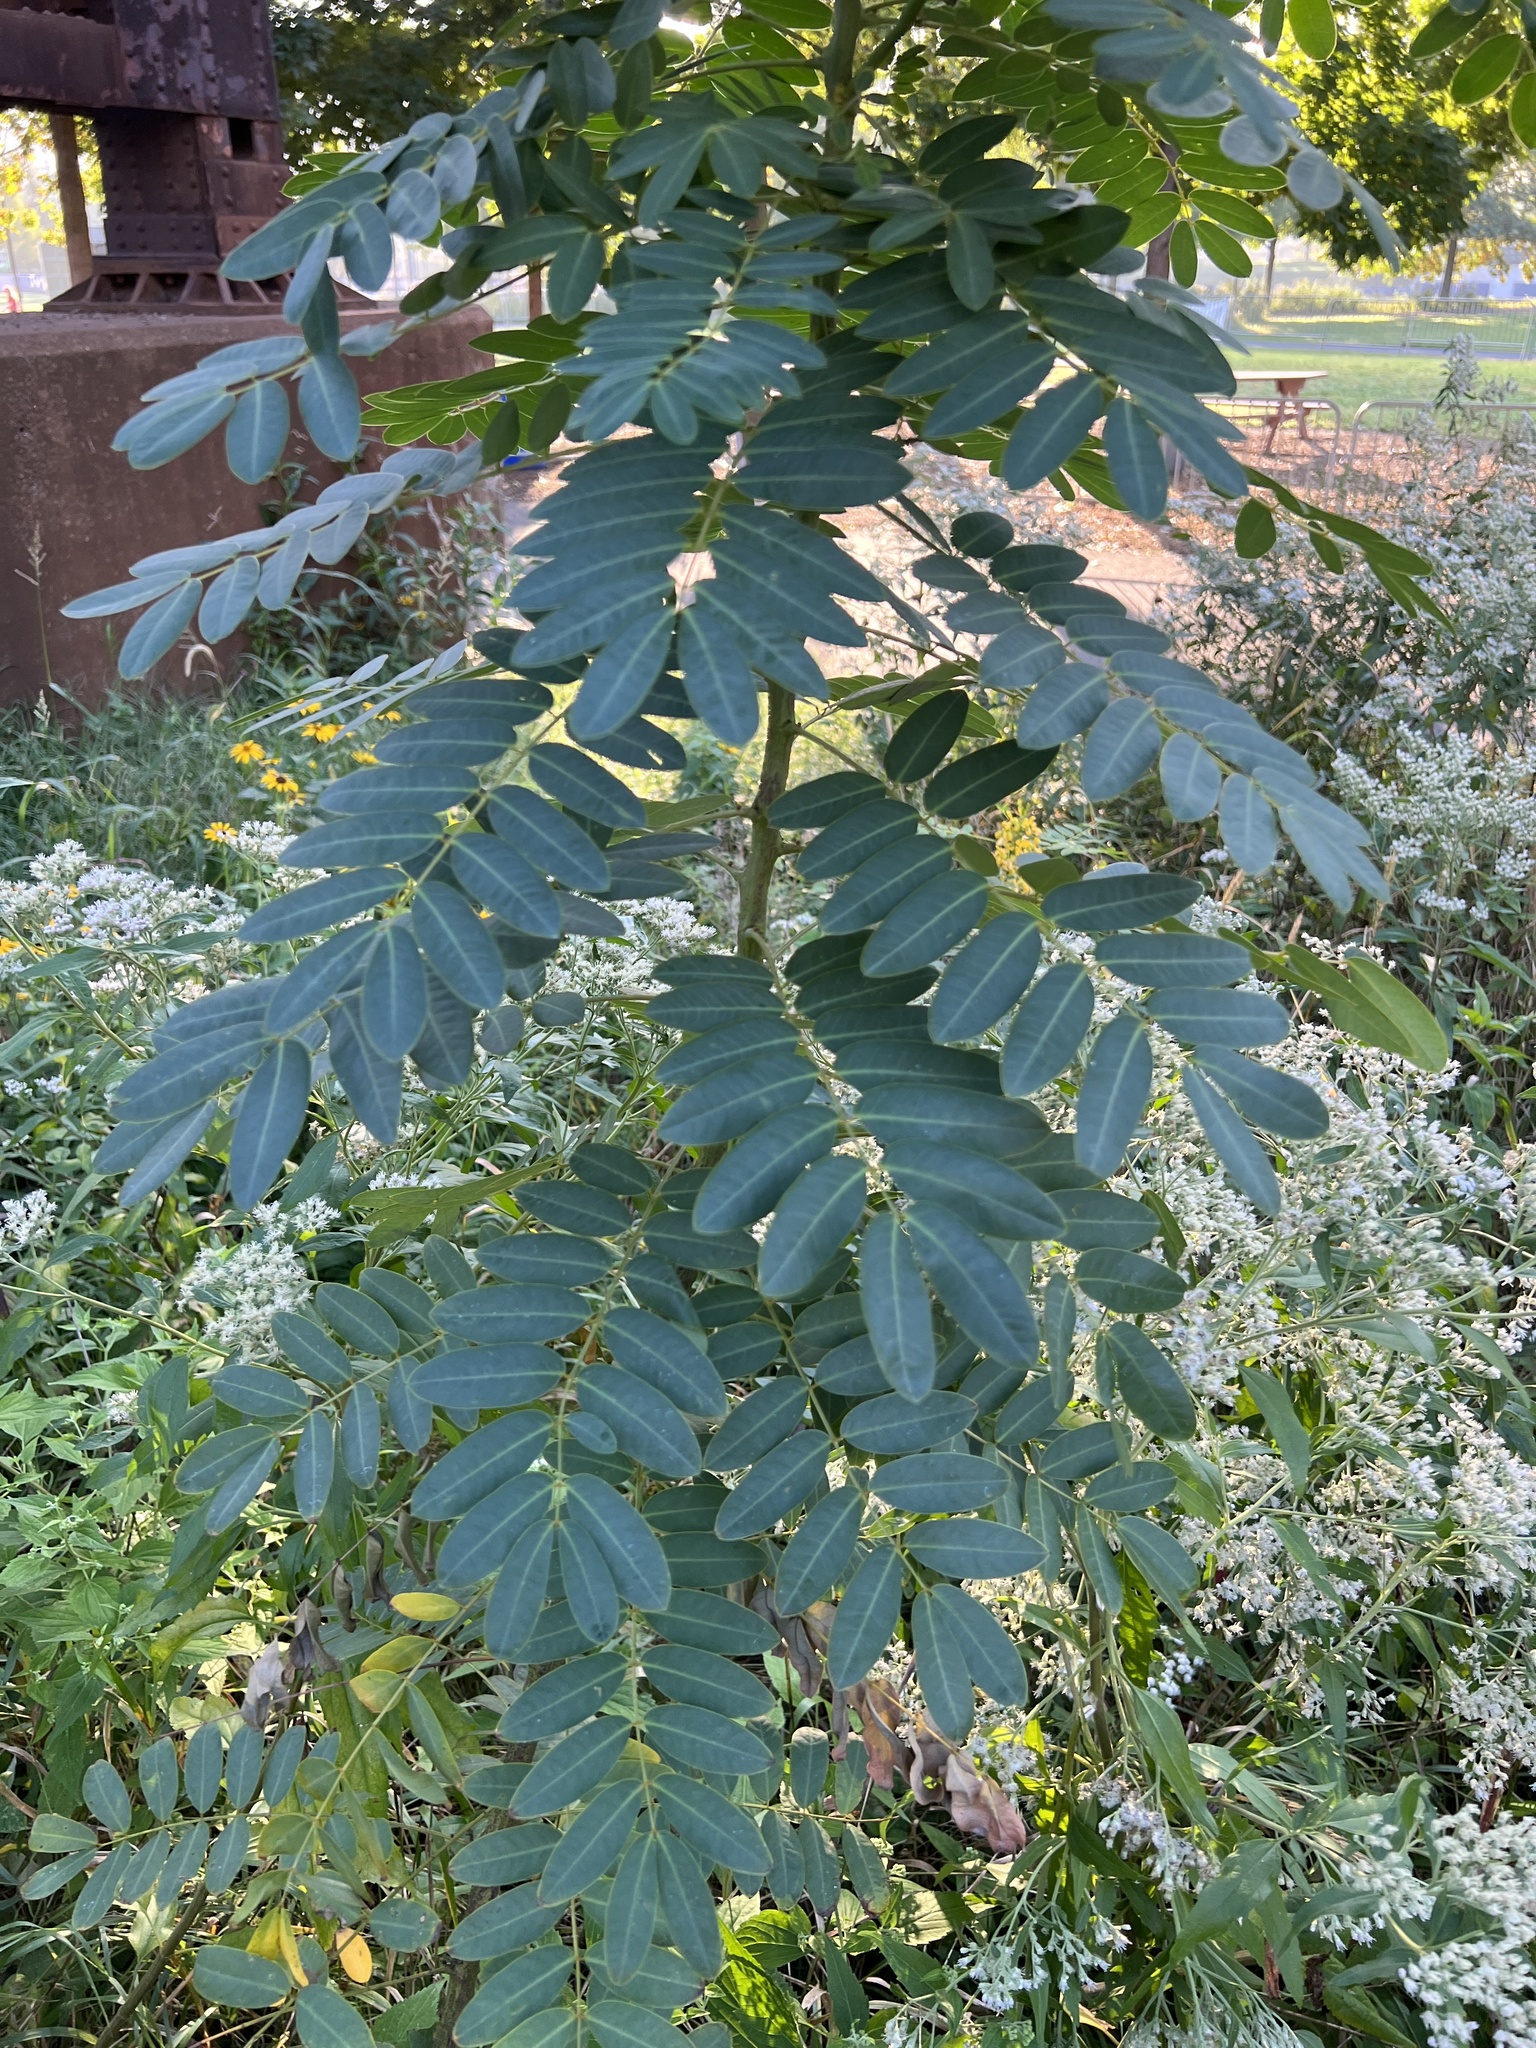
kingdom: Plantae
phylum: Tracheophyta
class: Magnoliopsida
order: Fabales
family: Fabaceae
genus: Senna
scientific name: Senna hebecarpa
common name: Wild senna
